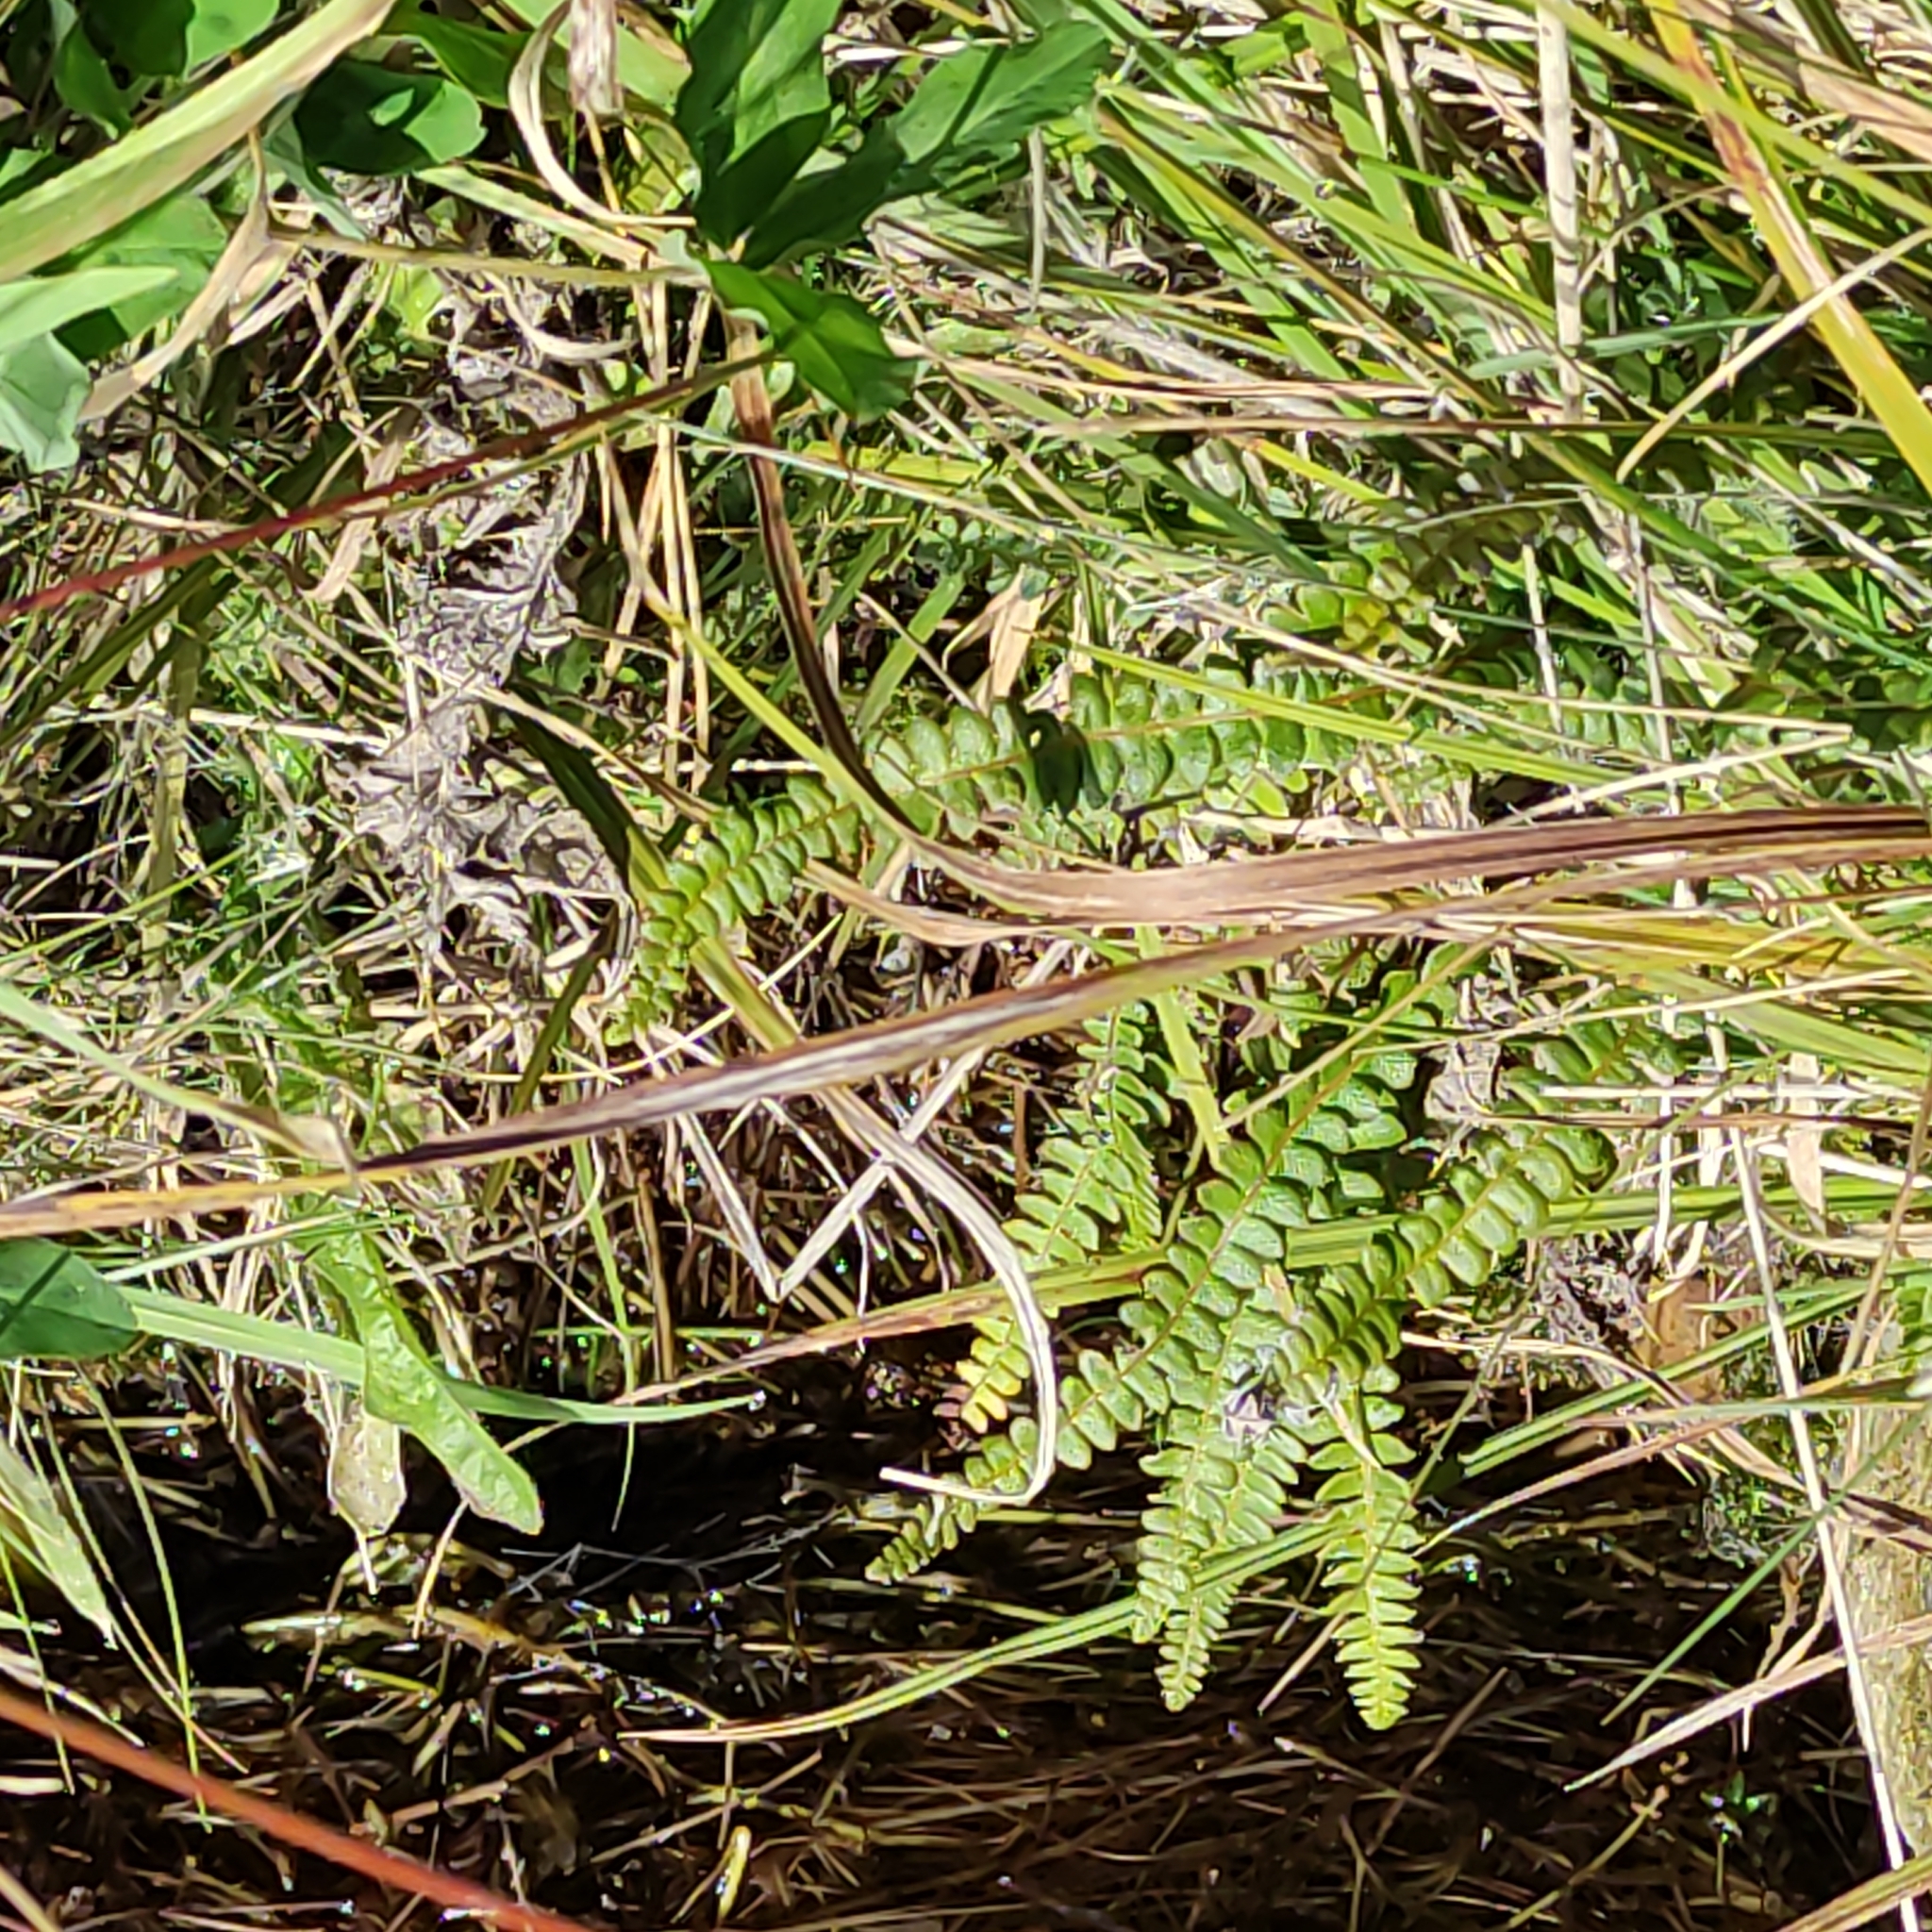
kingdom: Plantae
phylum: Tracheophyta
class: Polypodiopsida
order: Polypodiales
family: Blechnaceae
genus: Austroblechnum
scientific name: Austroblechnum penna-marina
